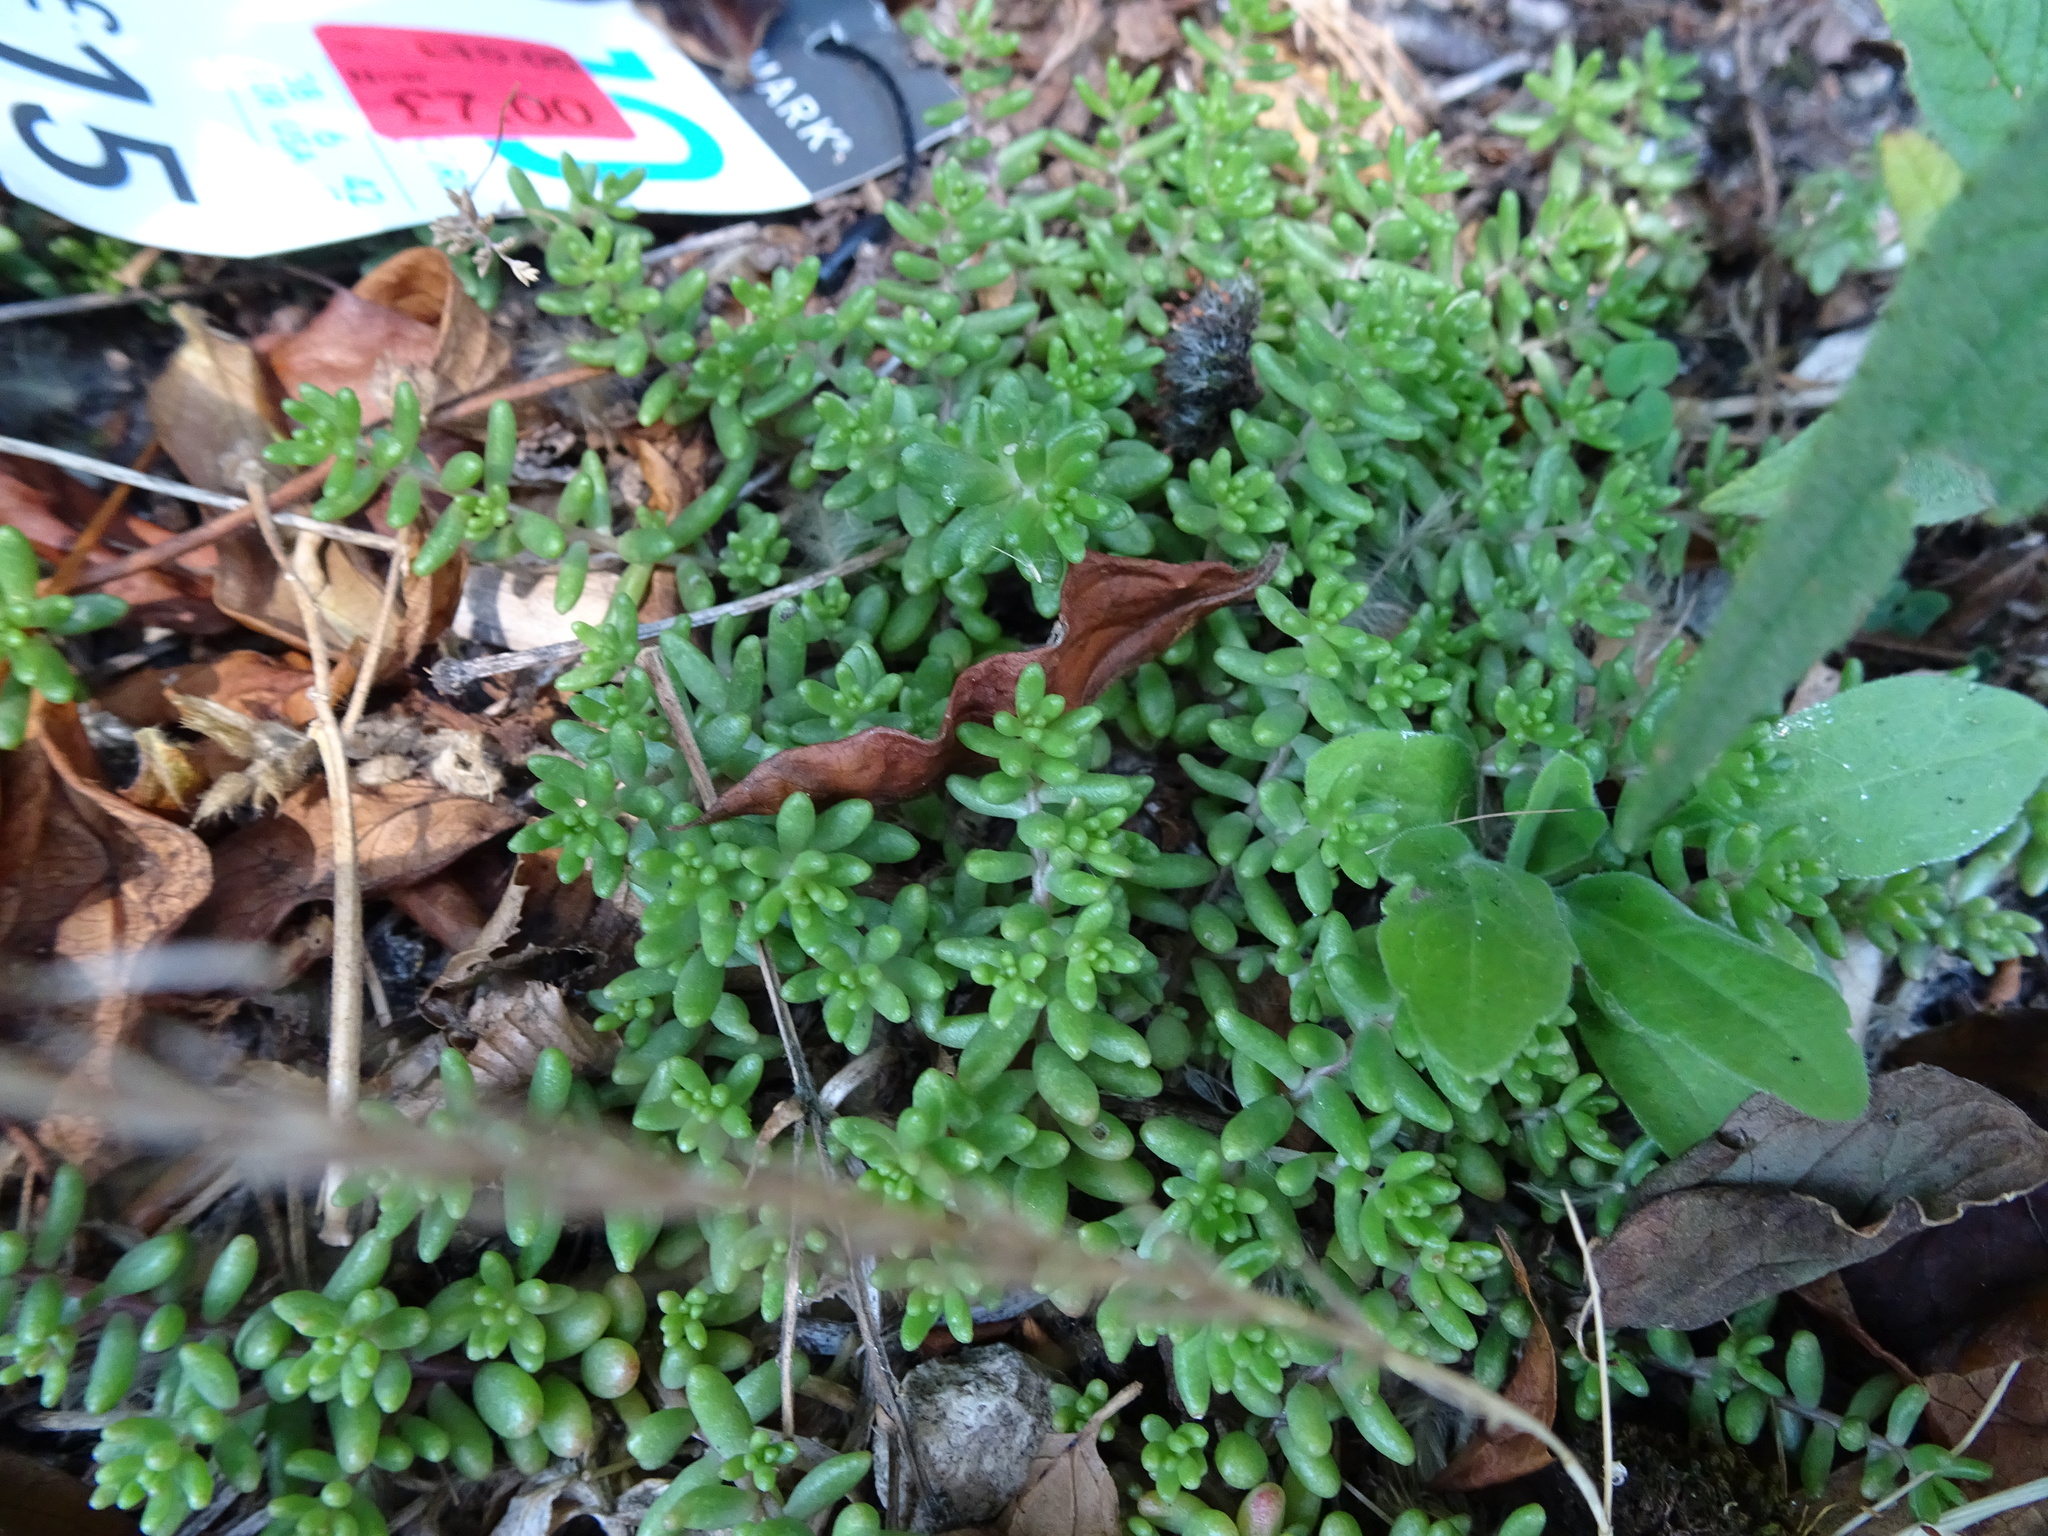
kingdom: Plantae
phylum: Tracheophyta
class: Magnoliopsida
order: Saxifragales
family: Crassulaceae
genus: Sedum
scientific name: Sedum album
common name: White stonecrop
